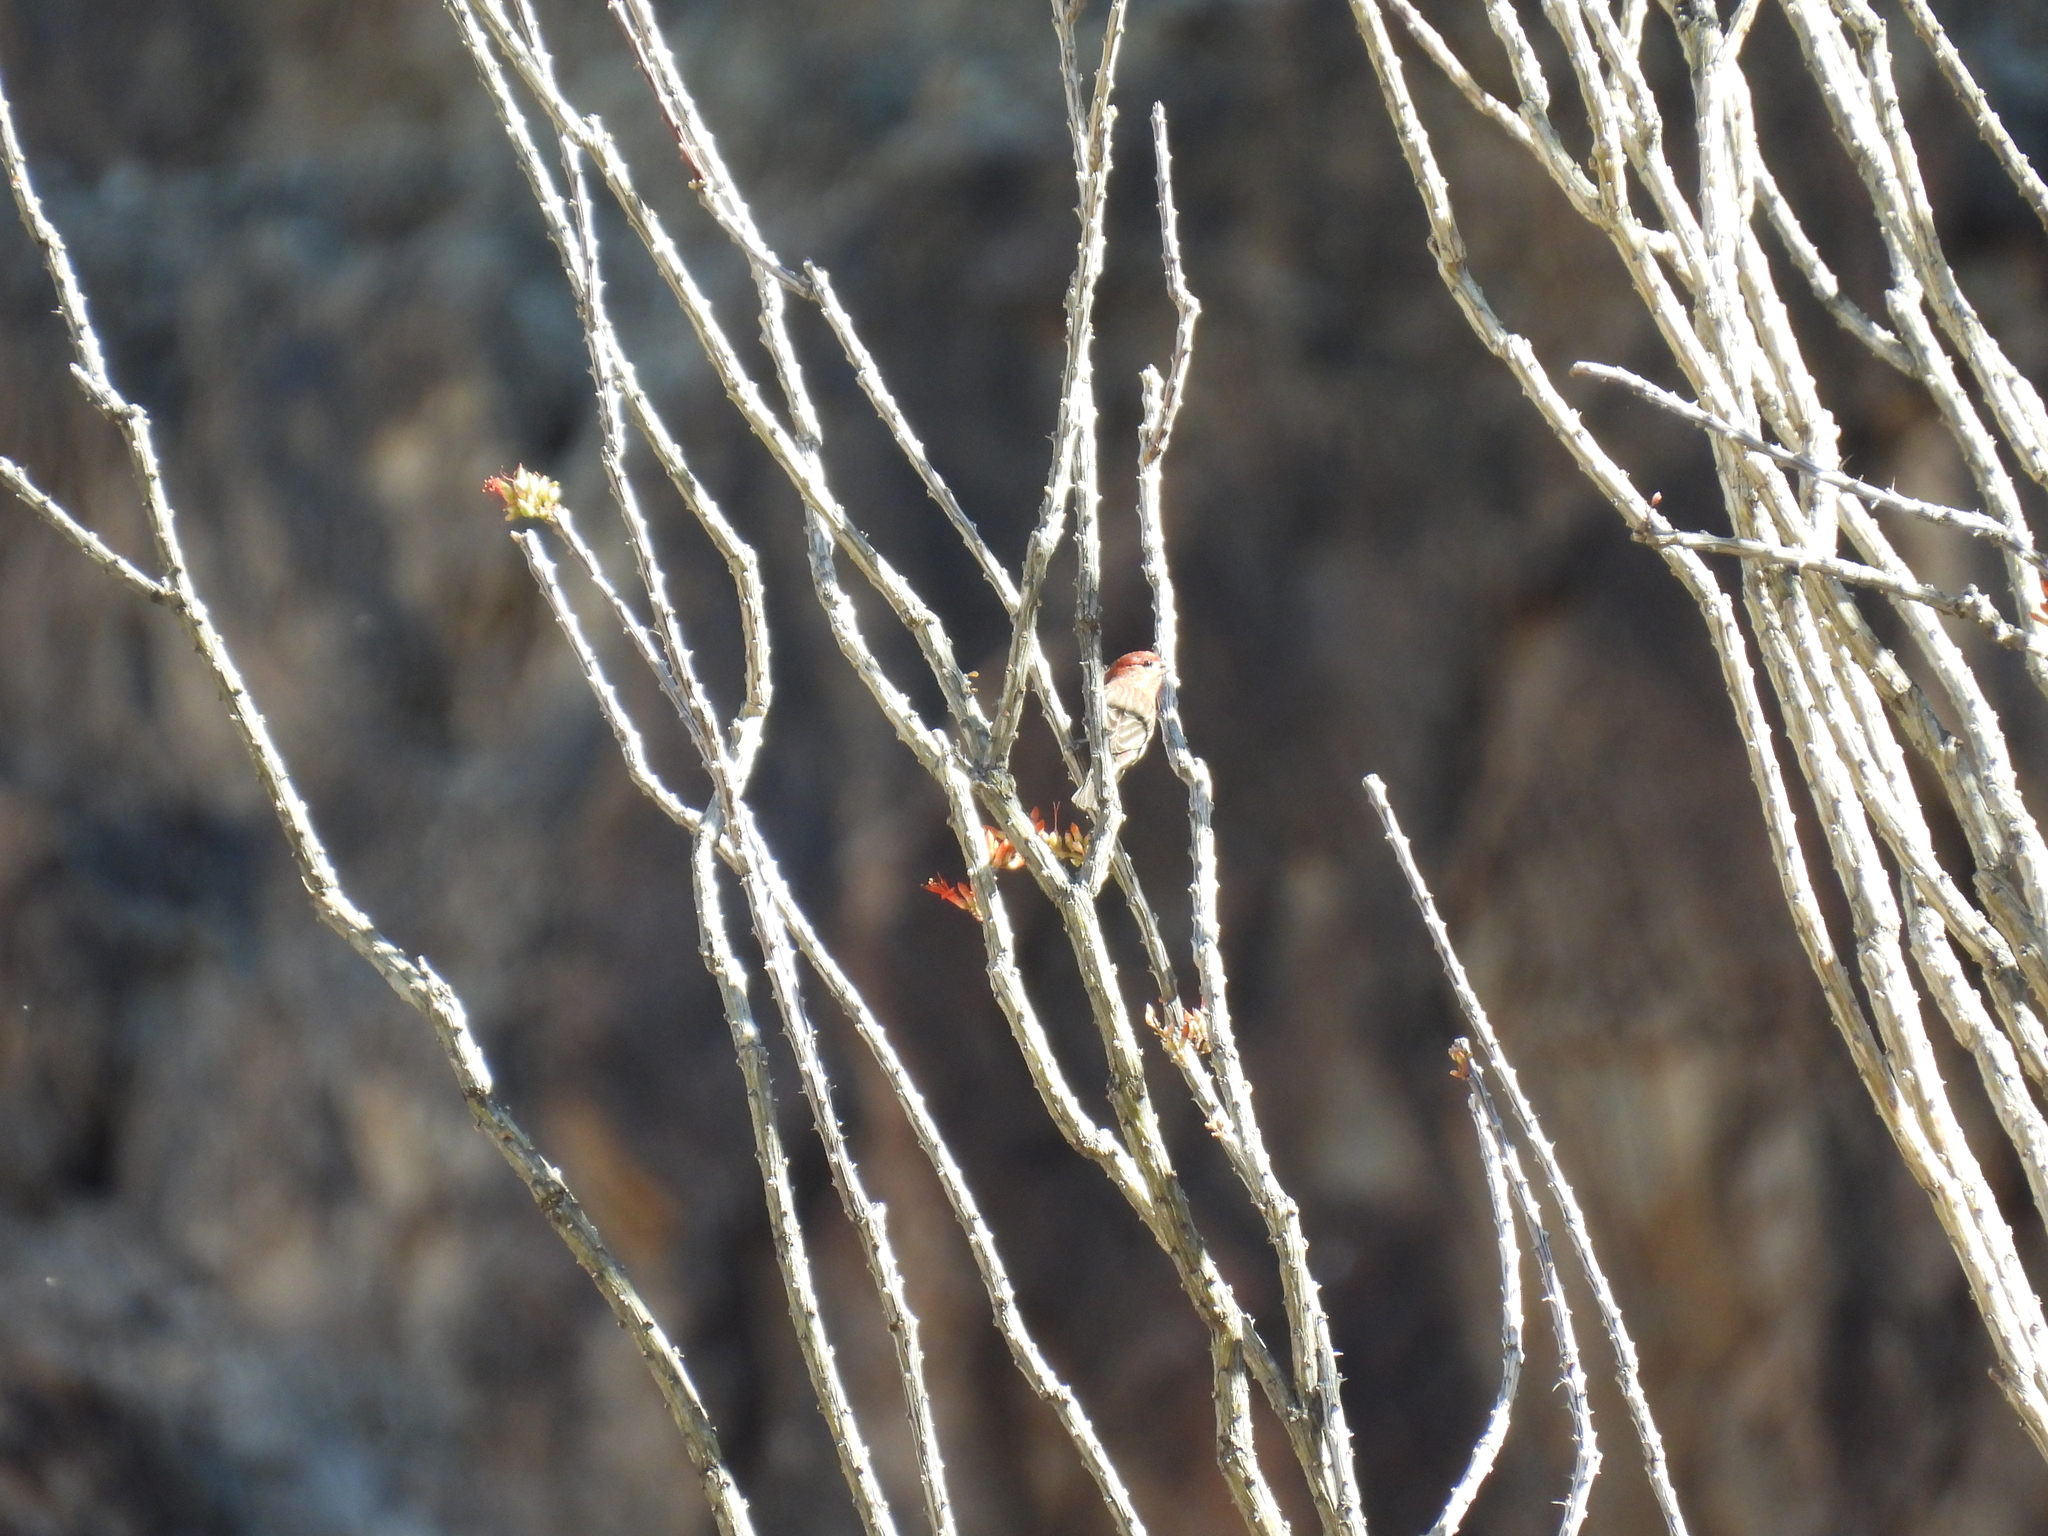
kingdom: Animalia
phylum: Chordata
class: Aves
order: Passeriformes
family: Fringillidae
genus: Haemorhous
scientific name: Haemorhous mexicanus
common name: House finch
